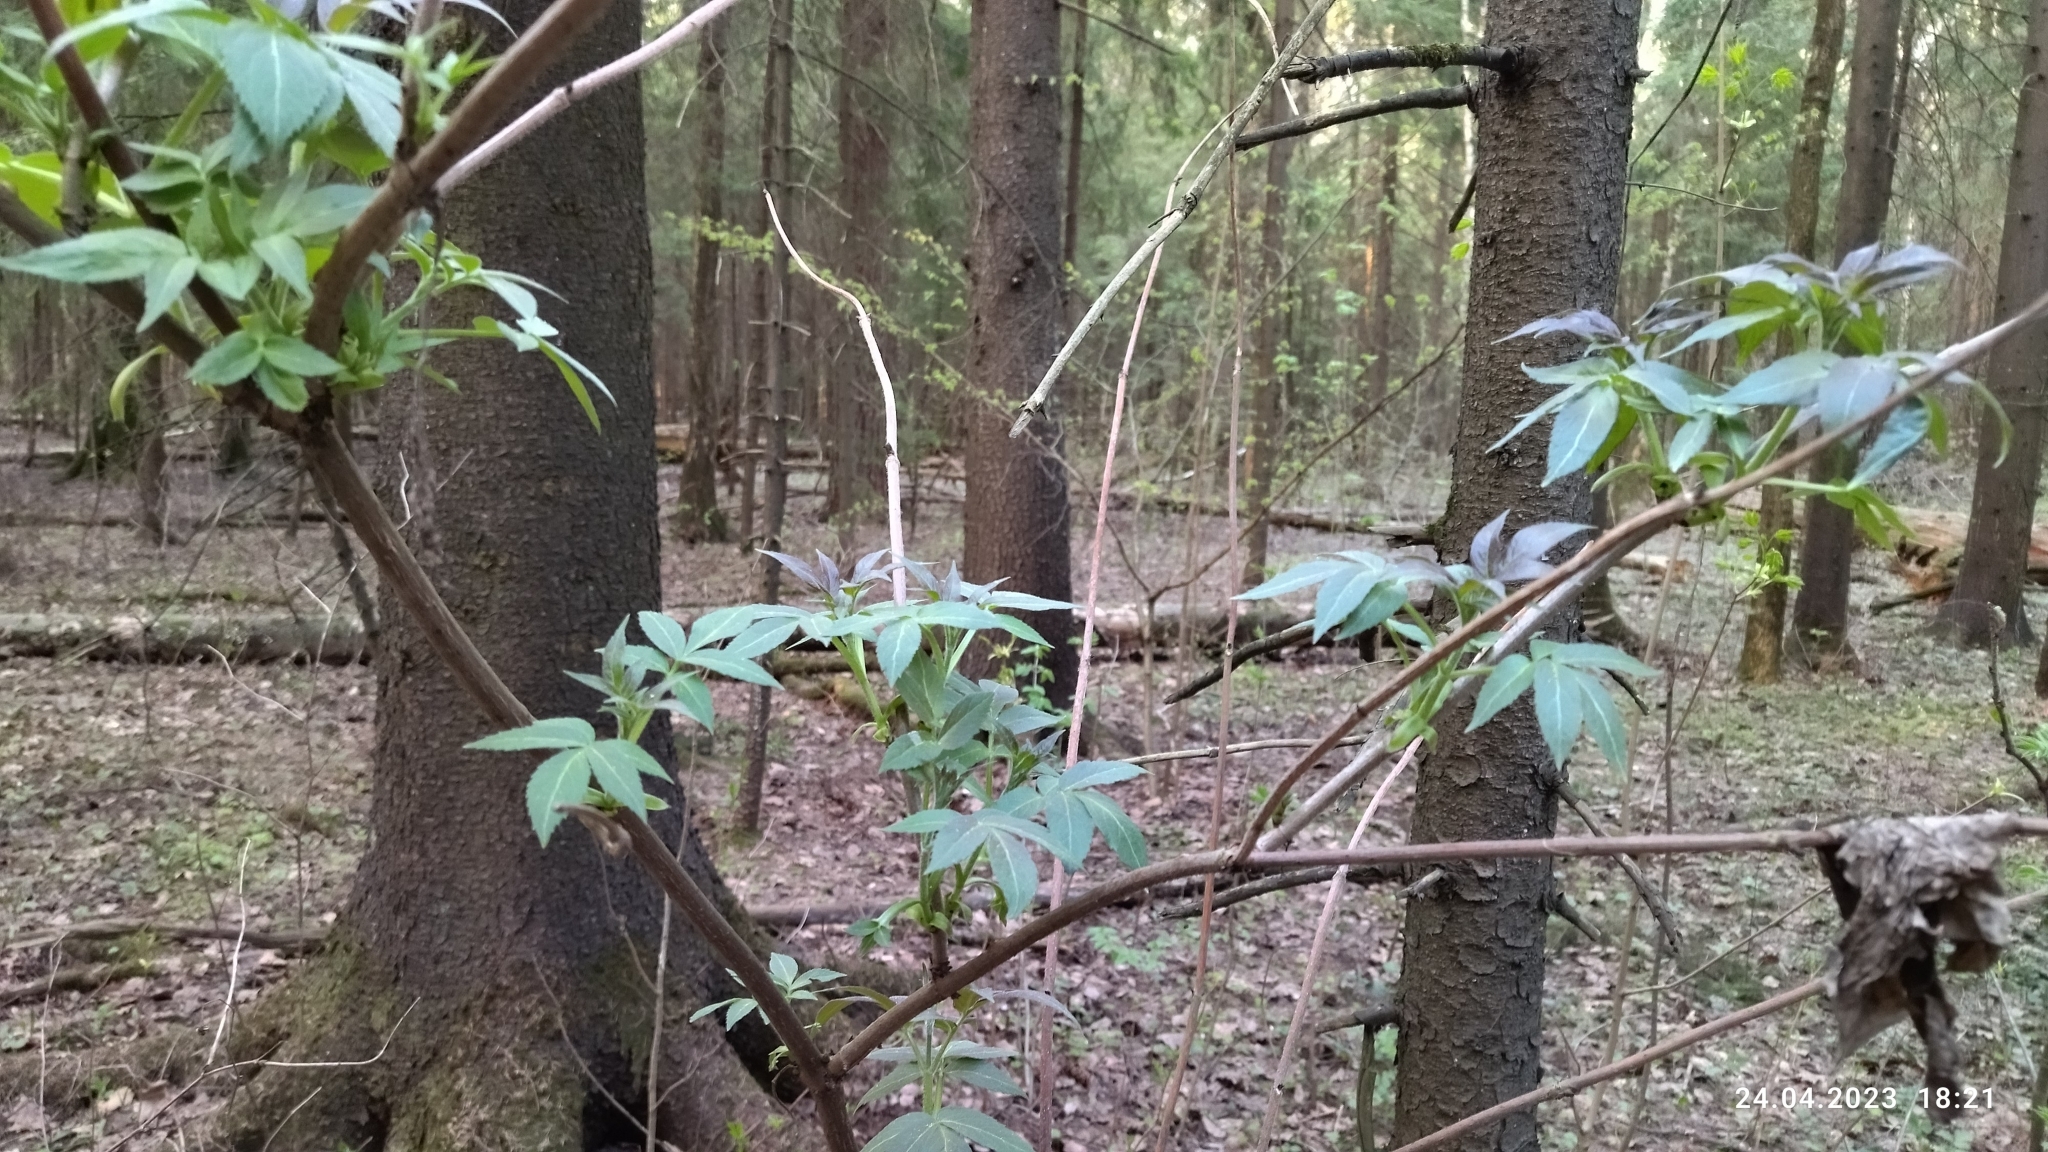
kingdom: Plantae
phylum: Tracheophyta
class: Magnoliopsida
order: Dipsacales
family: Viburnaceae
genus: Sambucus
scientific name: Sambucus racemosa
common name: Red-berried elder
